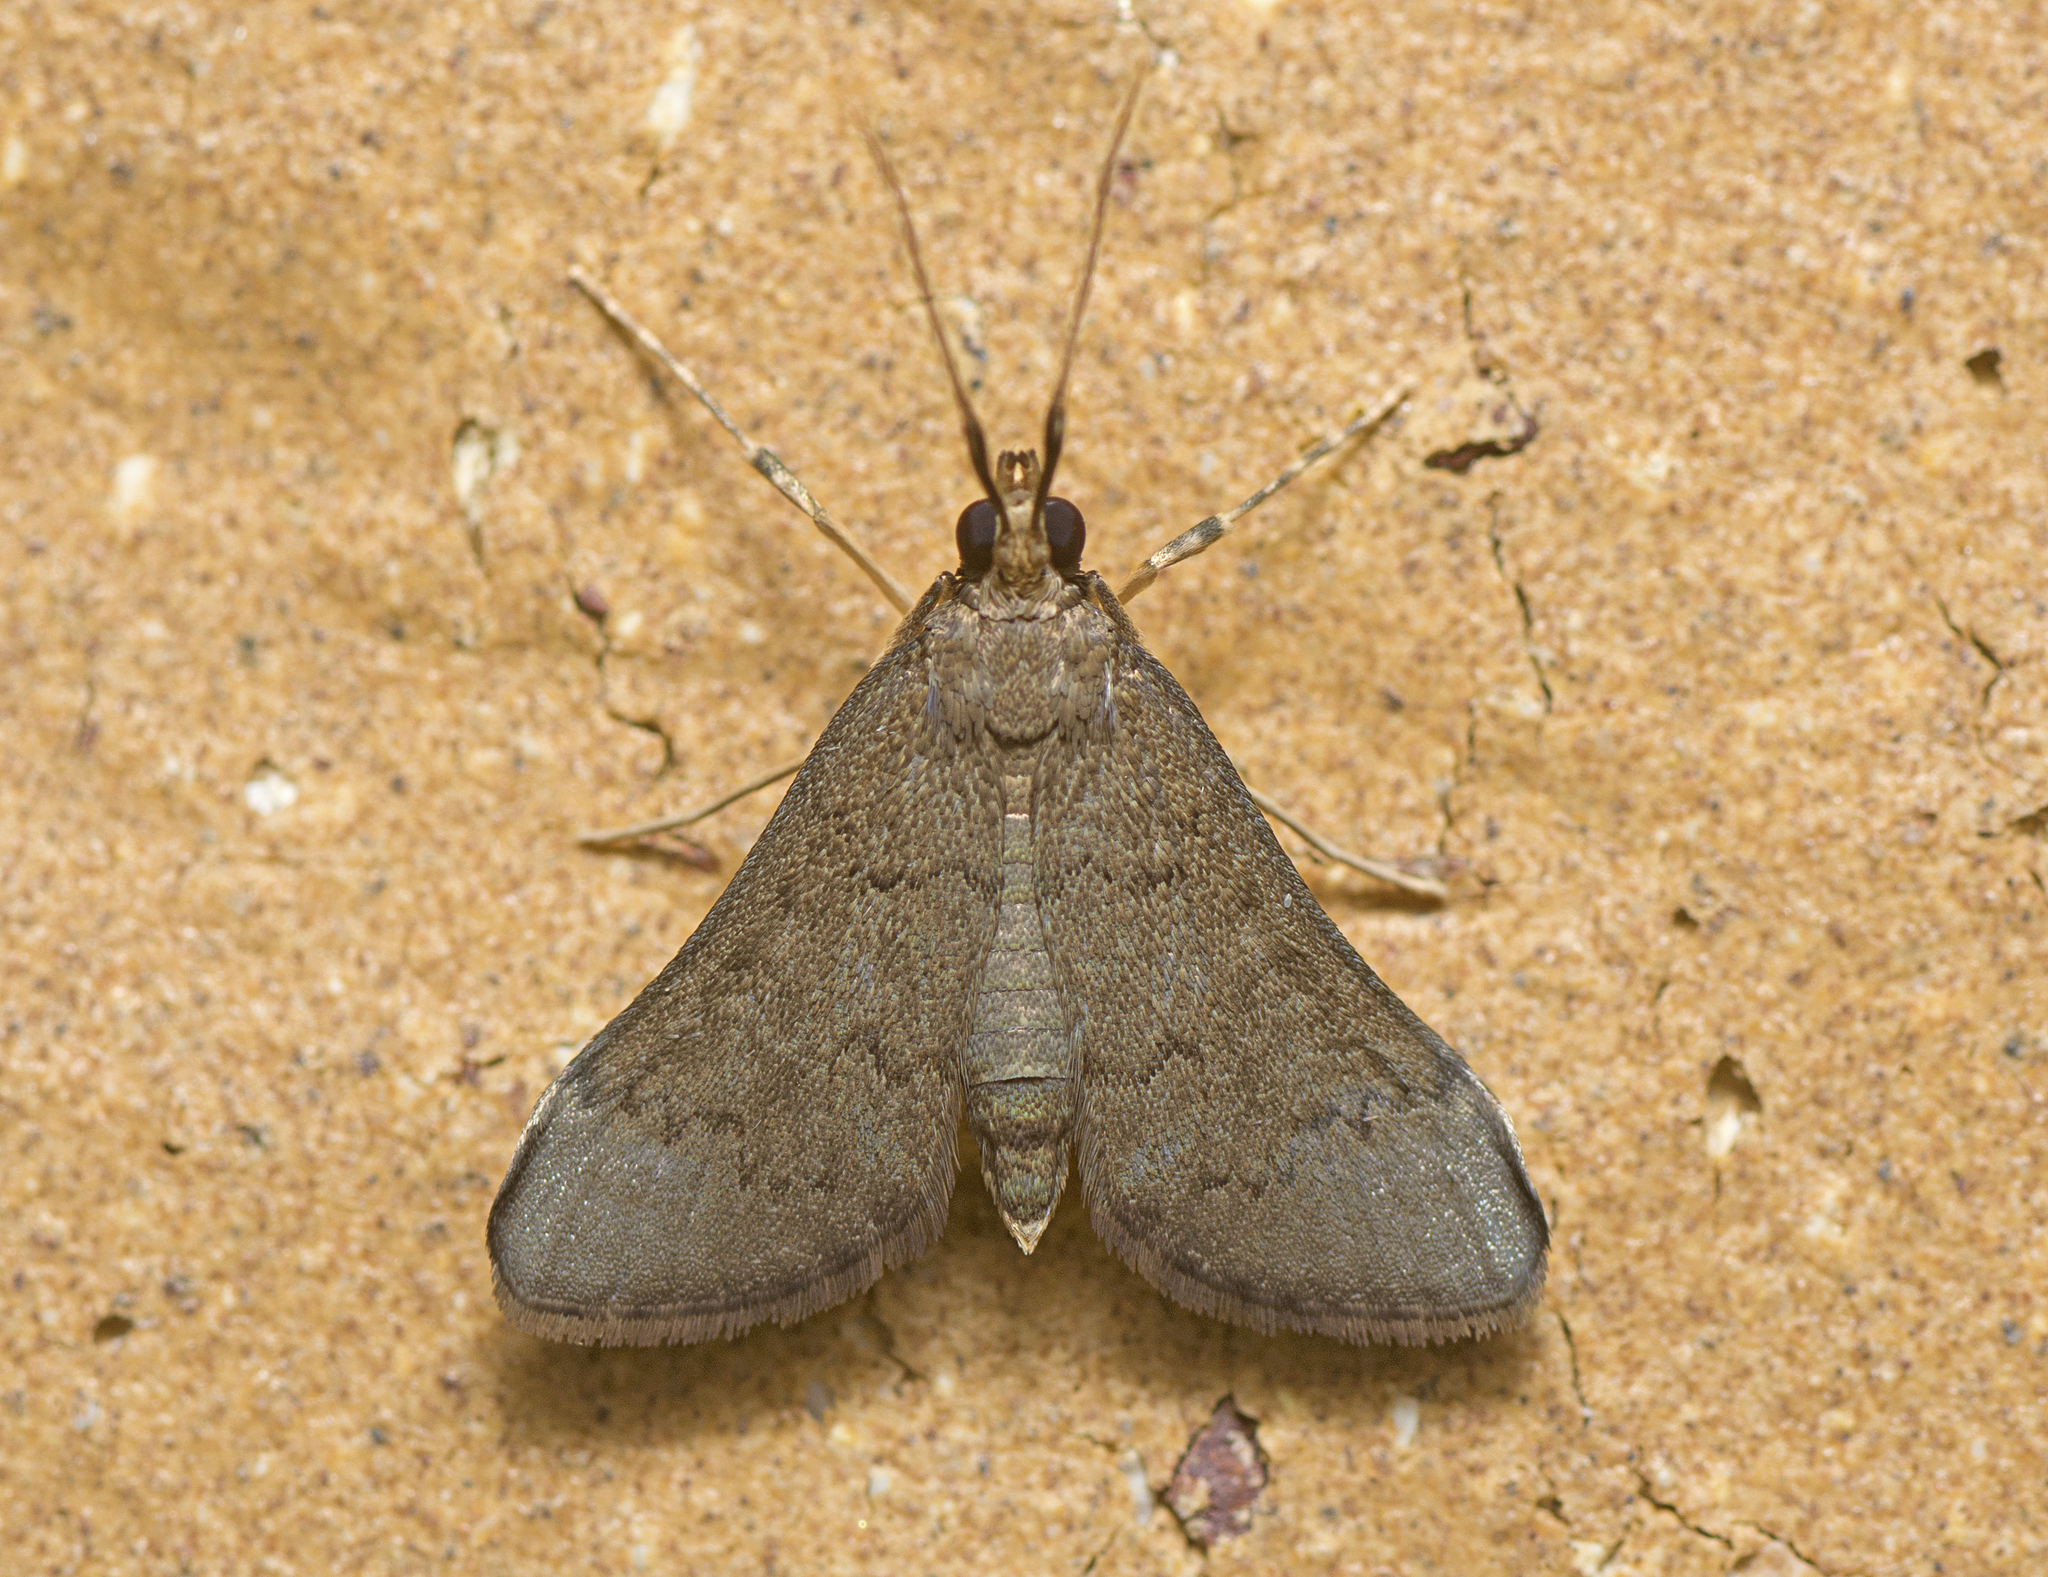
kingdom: Animalia
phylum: Arthropoda
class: Insecta
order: Lepidoptera
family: Crambidae
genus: Piletocera
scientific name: Piletocera macroperalis
